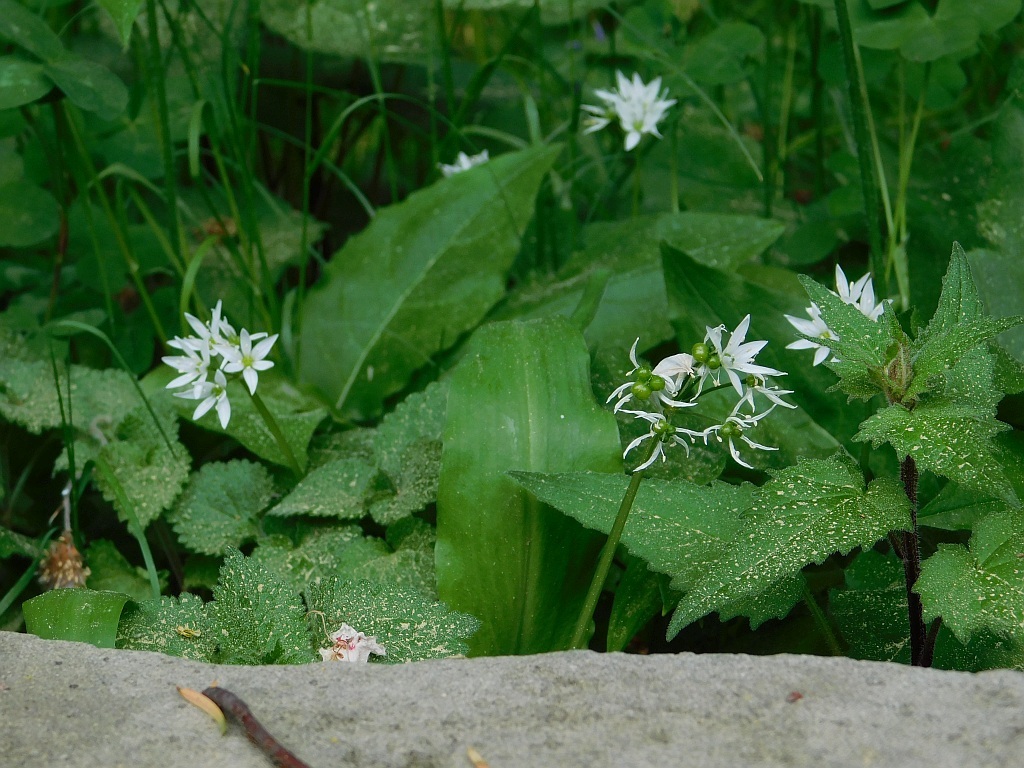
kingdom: Plantae
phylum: Tracheophyta
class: Liliopsida
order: Asparagales
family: Amaryllidaceae
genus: Allium
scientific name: Allium ursinum
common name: Ramsons
